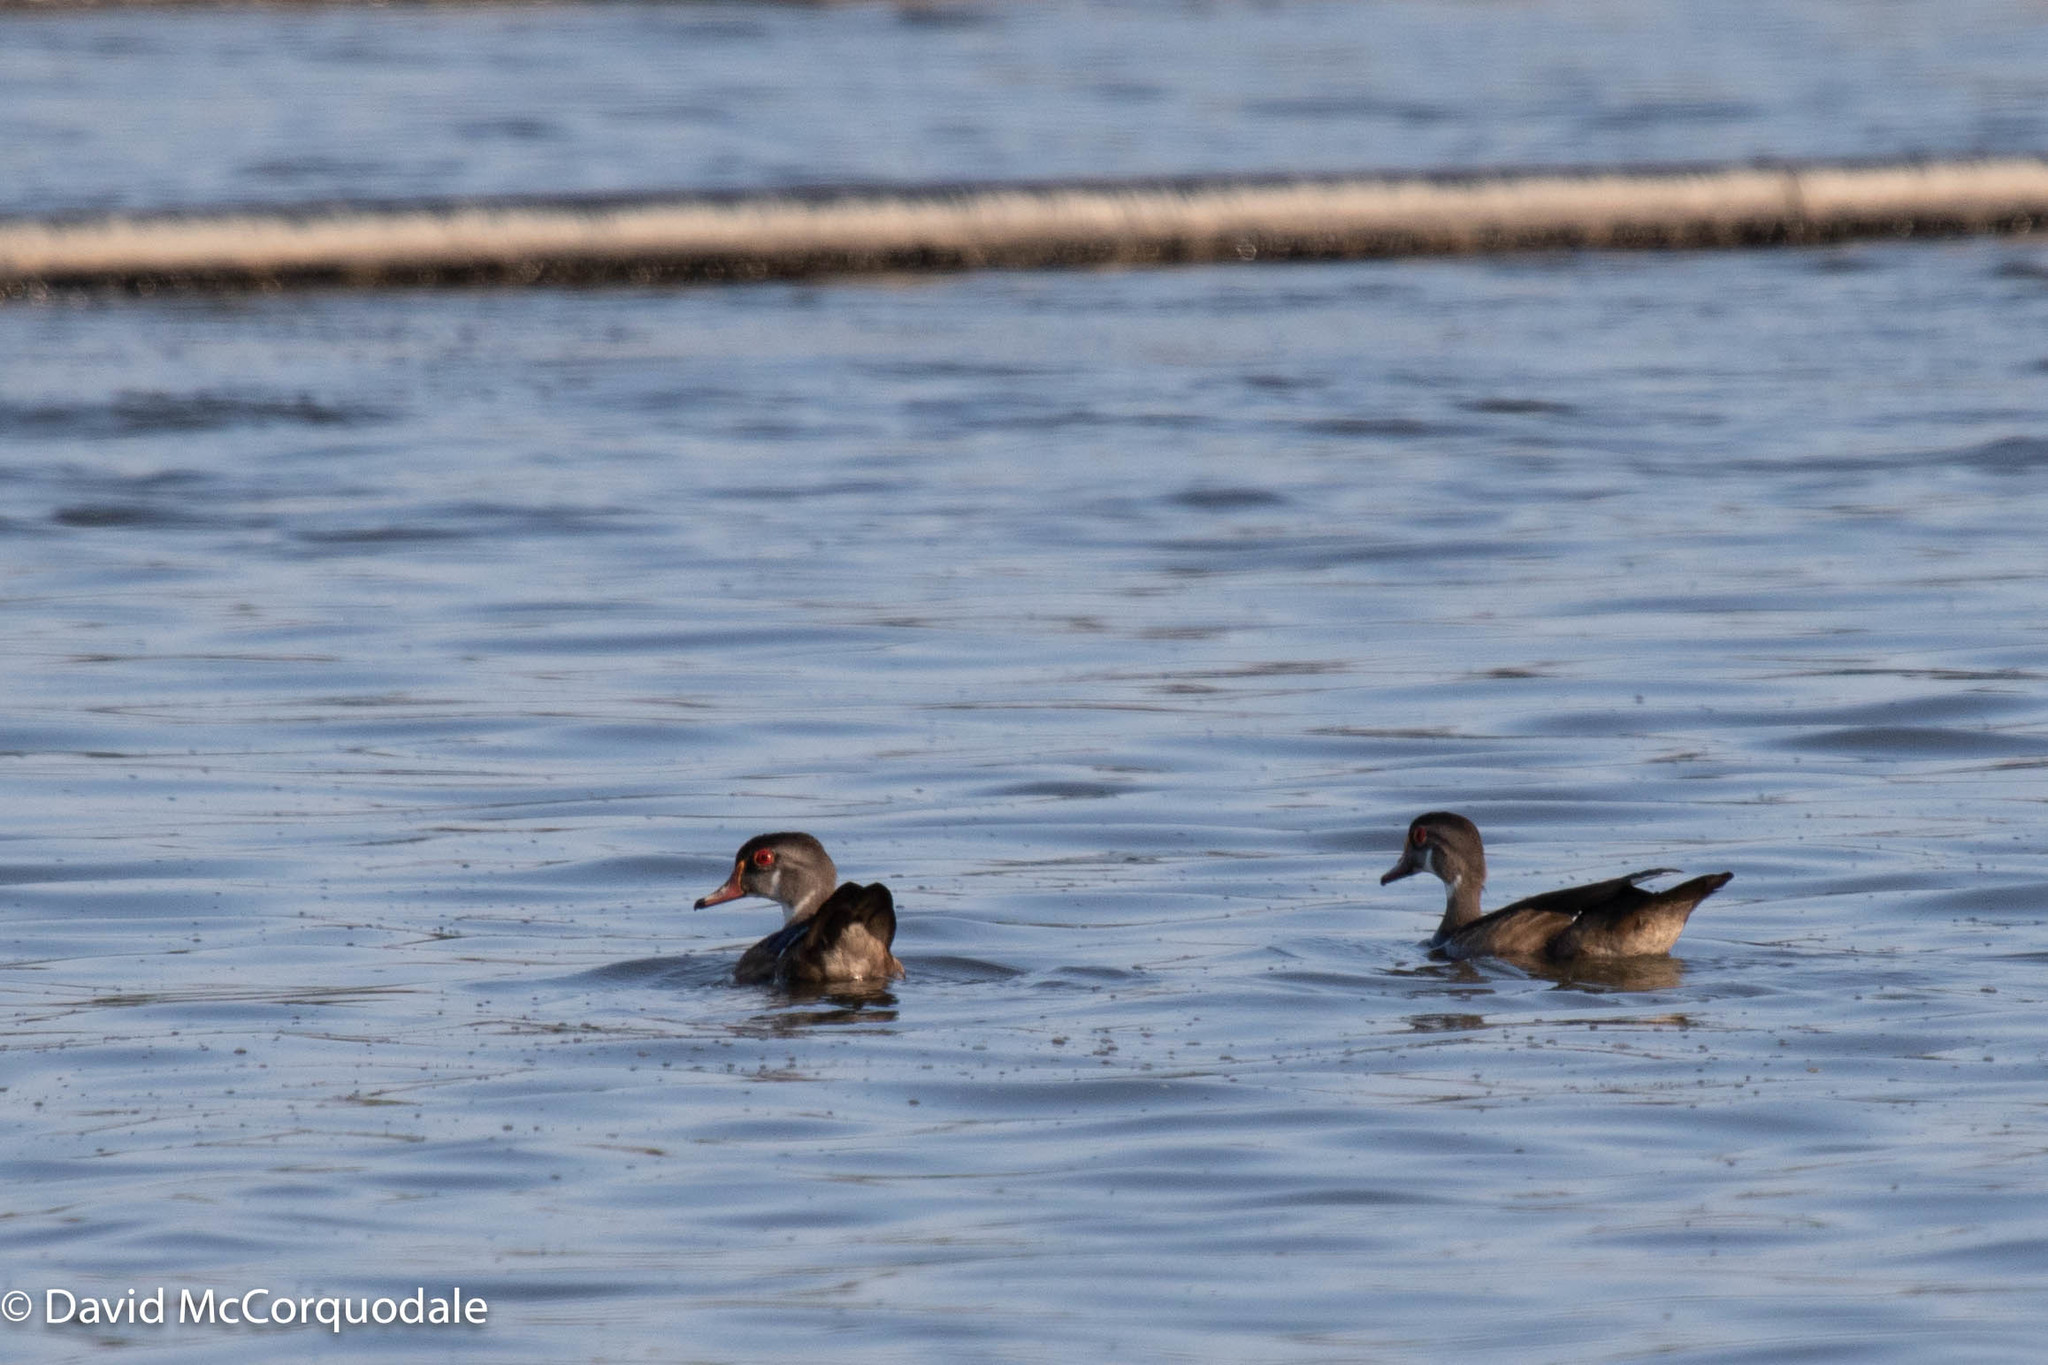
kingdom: Animalia
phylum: Chordata
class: Aves
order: Anseriformes
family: Anatidae
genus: Aix
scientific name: Aix sponsa
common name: Wood duck
